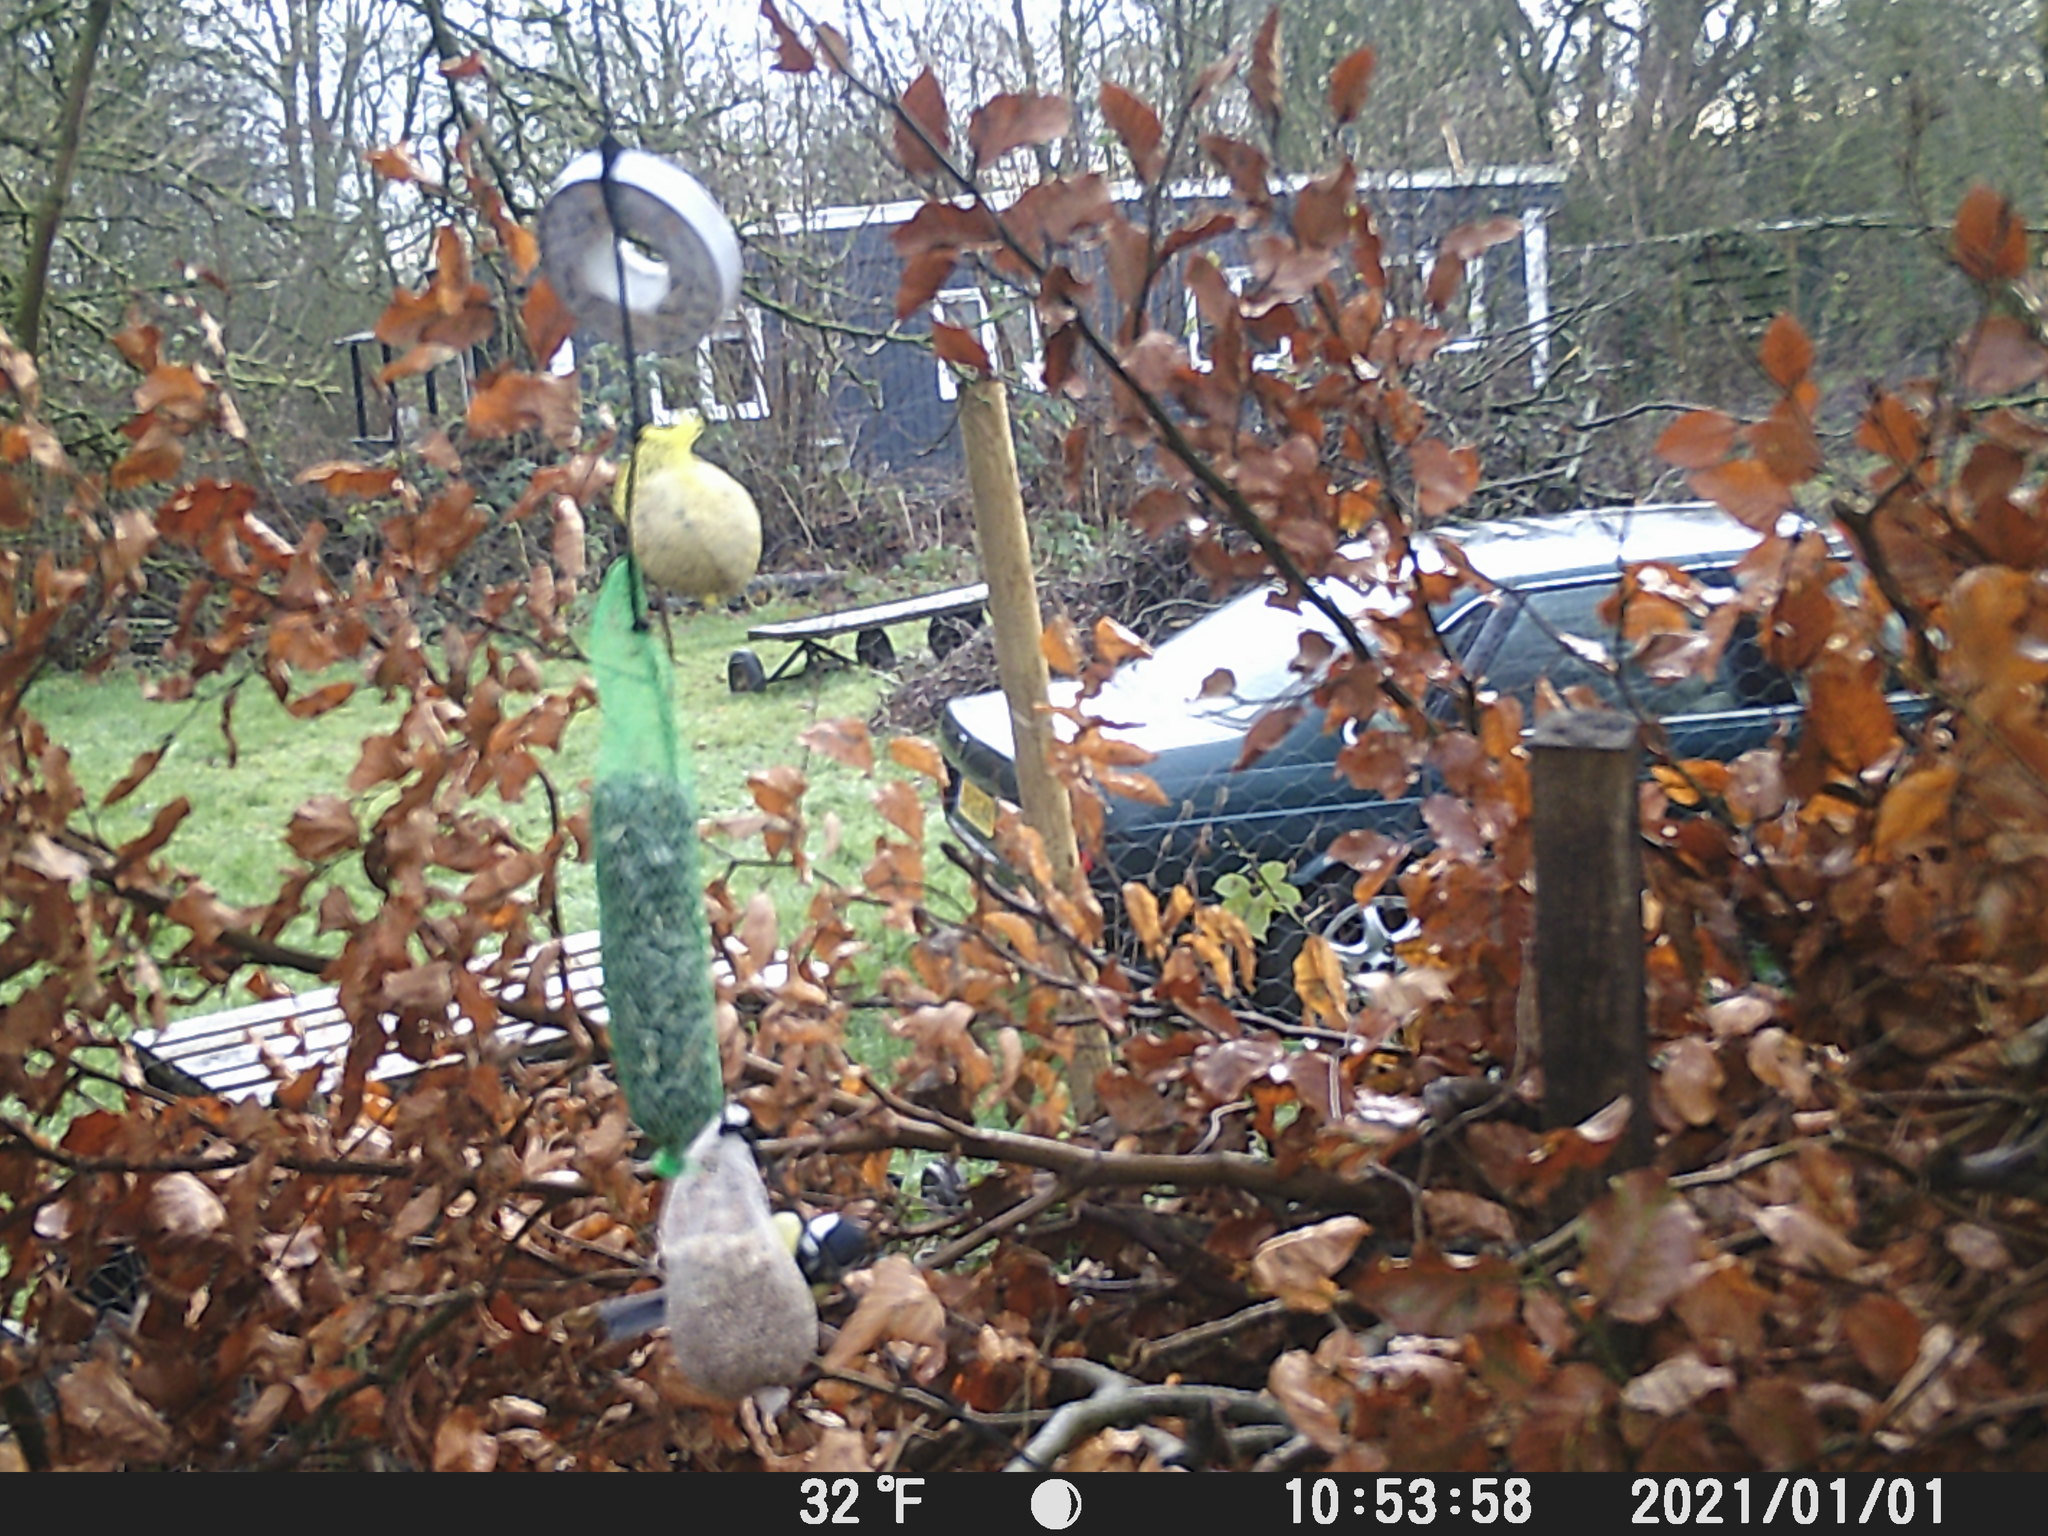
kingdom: Animalia
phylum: Chordata
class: Aves
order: Passeriformes
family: Paridae
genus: Parus
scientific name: Parus major
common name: Great tit
